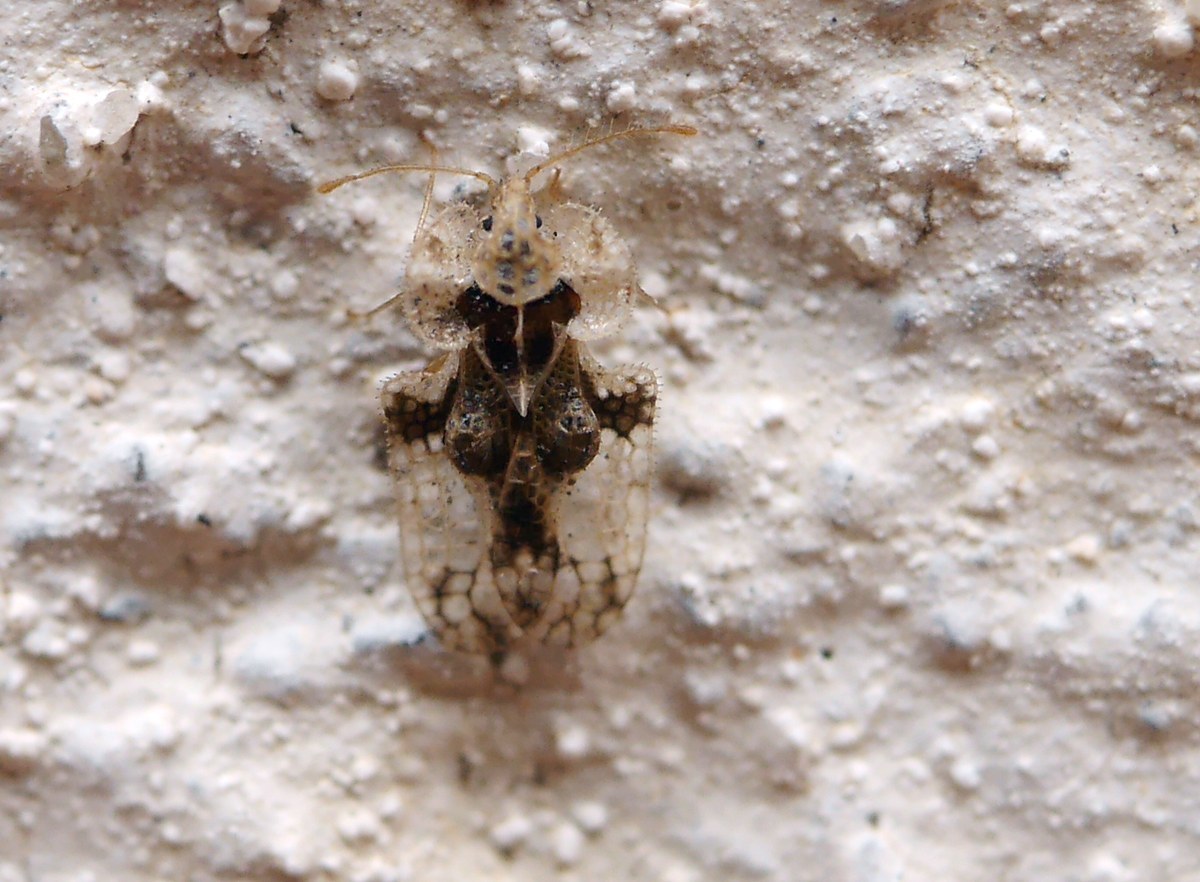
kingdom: Animalia
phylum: Arthropoda
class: Insecta
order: Hemiptera
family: Tingidae
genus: Corythucha
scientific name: Corythucha arcuata
